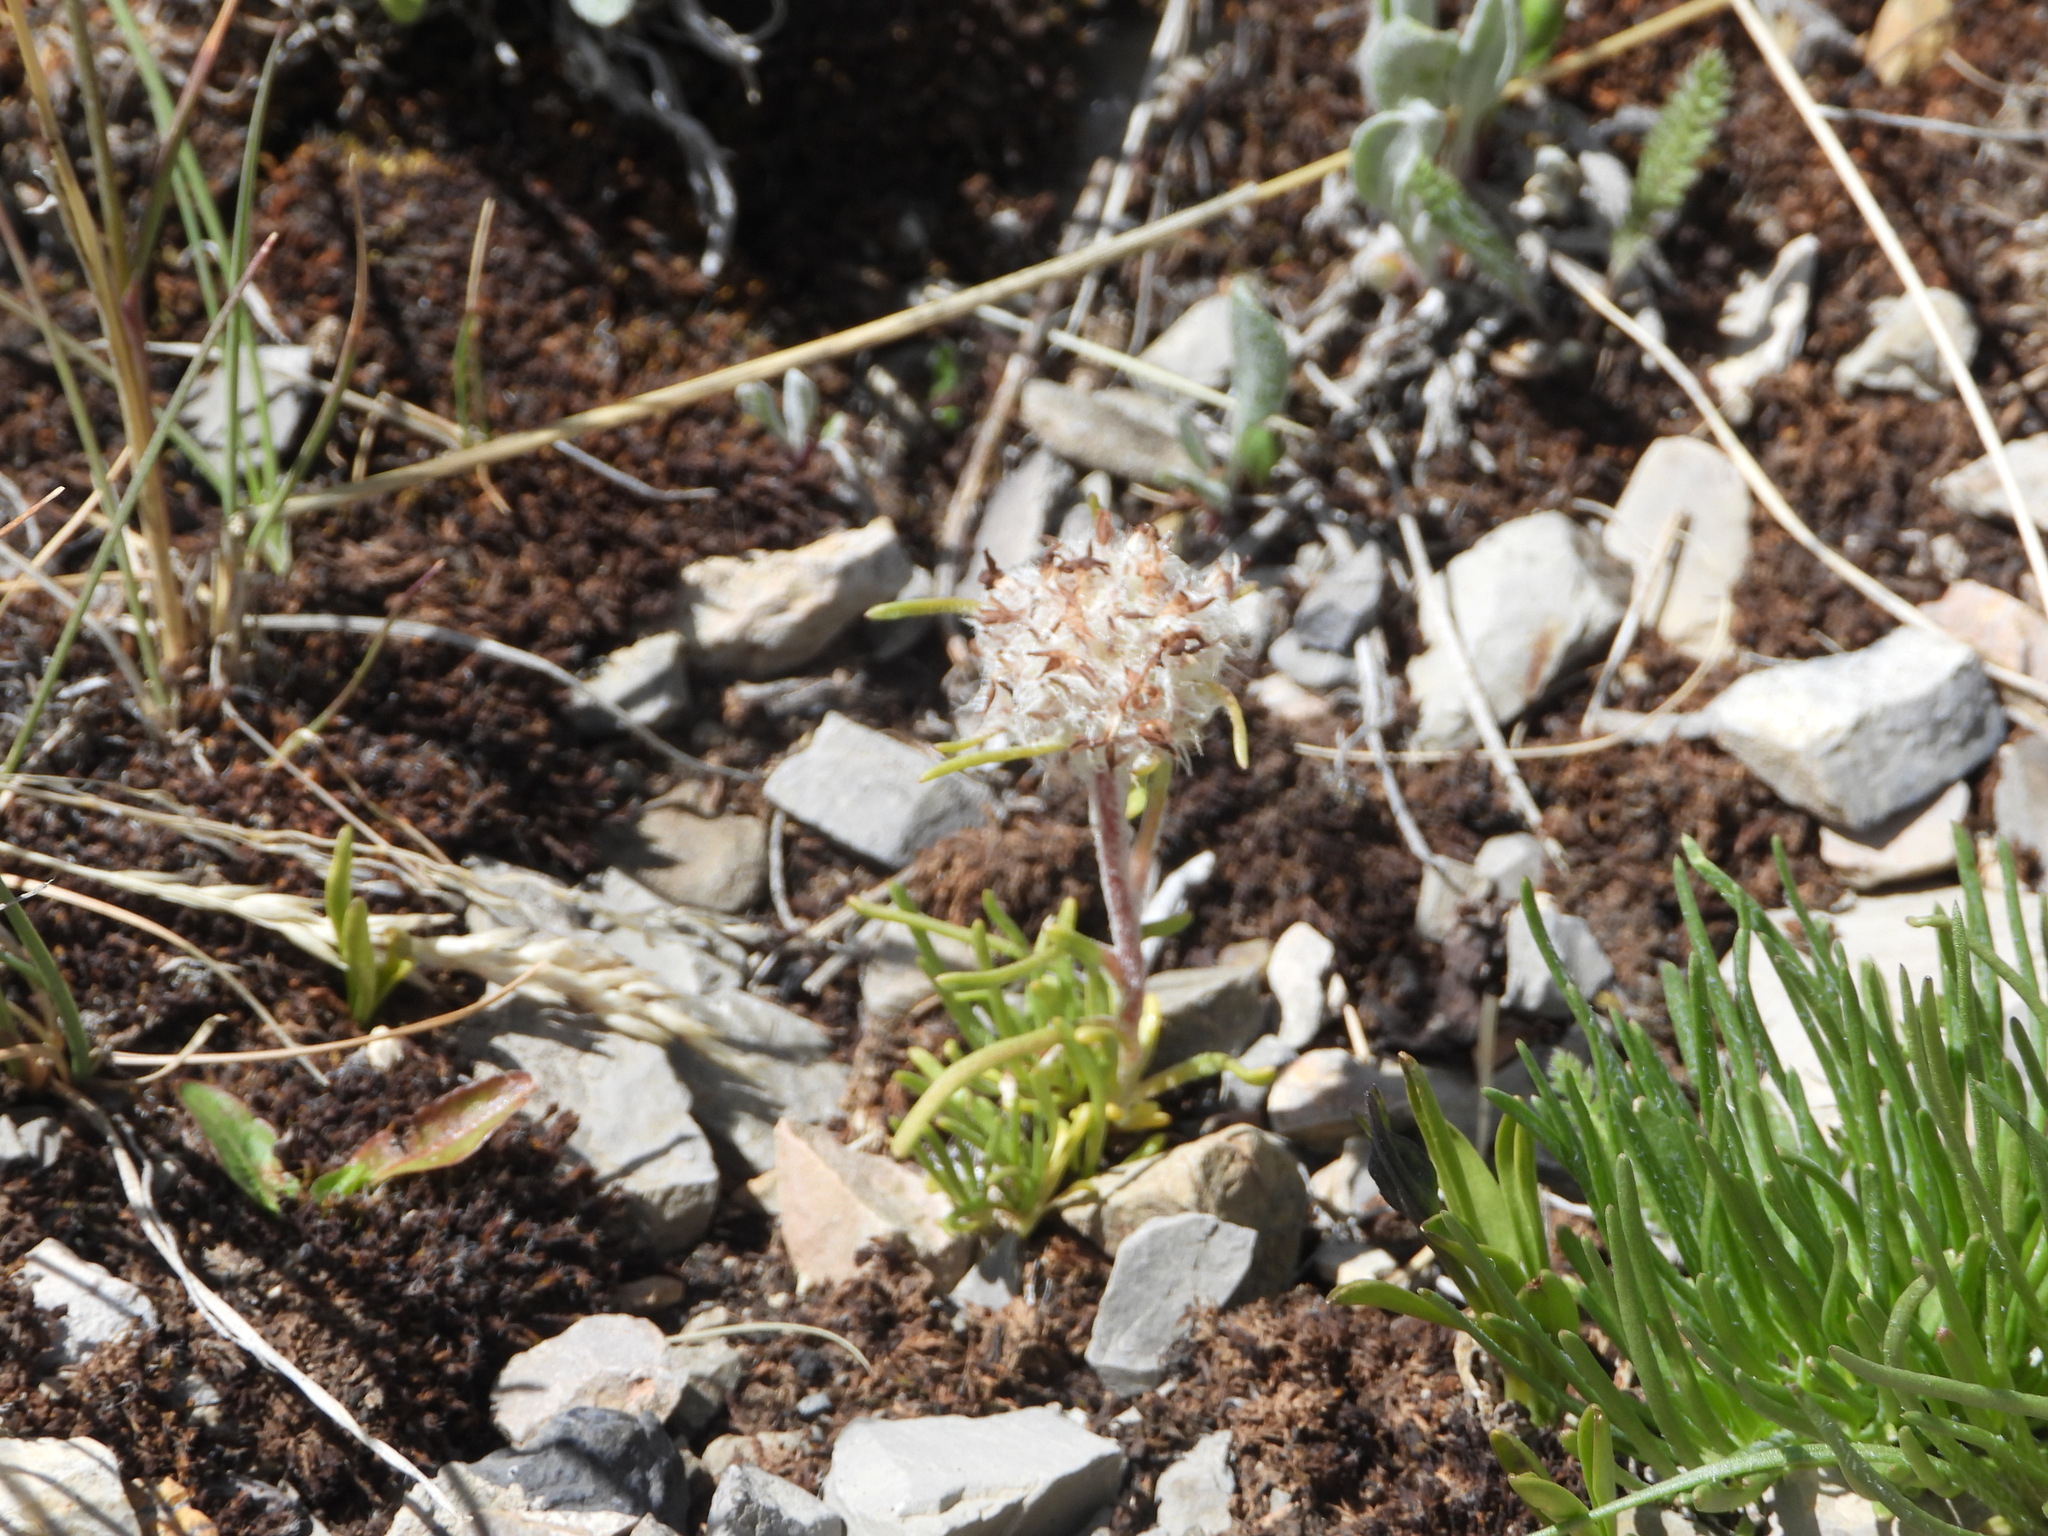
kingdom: Plantae
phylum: Tracheophyta
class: Magnoliopsida
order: Ericales
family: Polemoniaceae
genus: Ipomopsis
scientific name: Ipomopsis globularis
